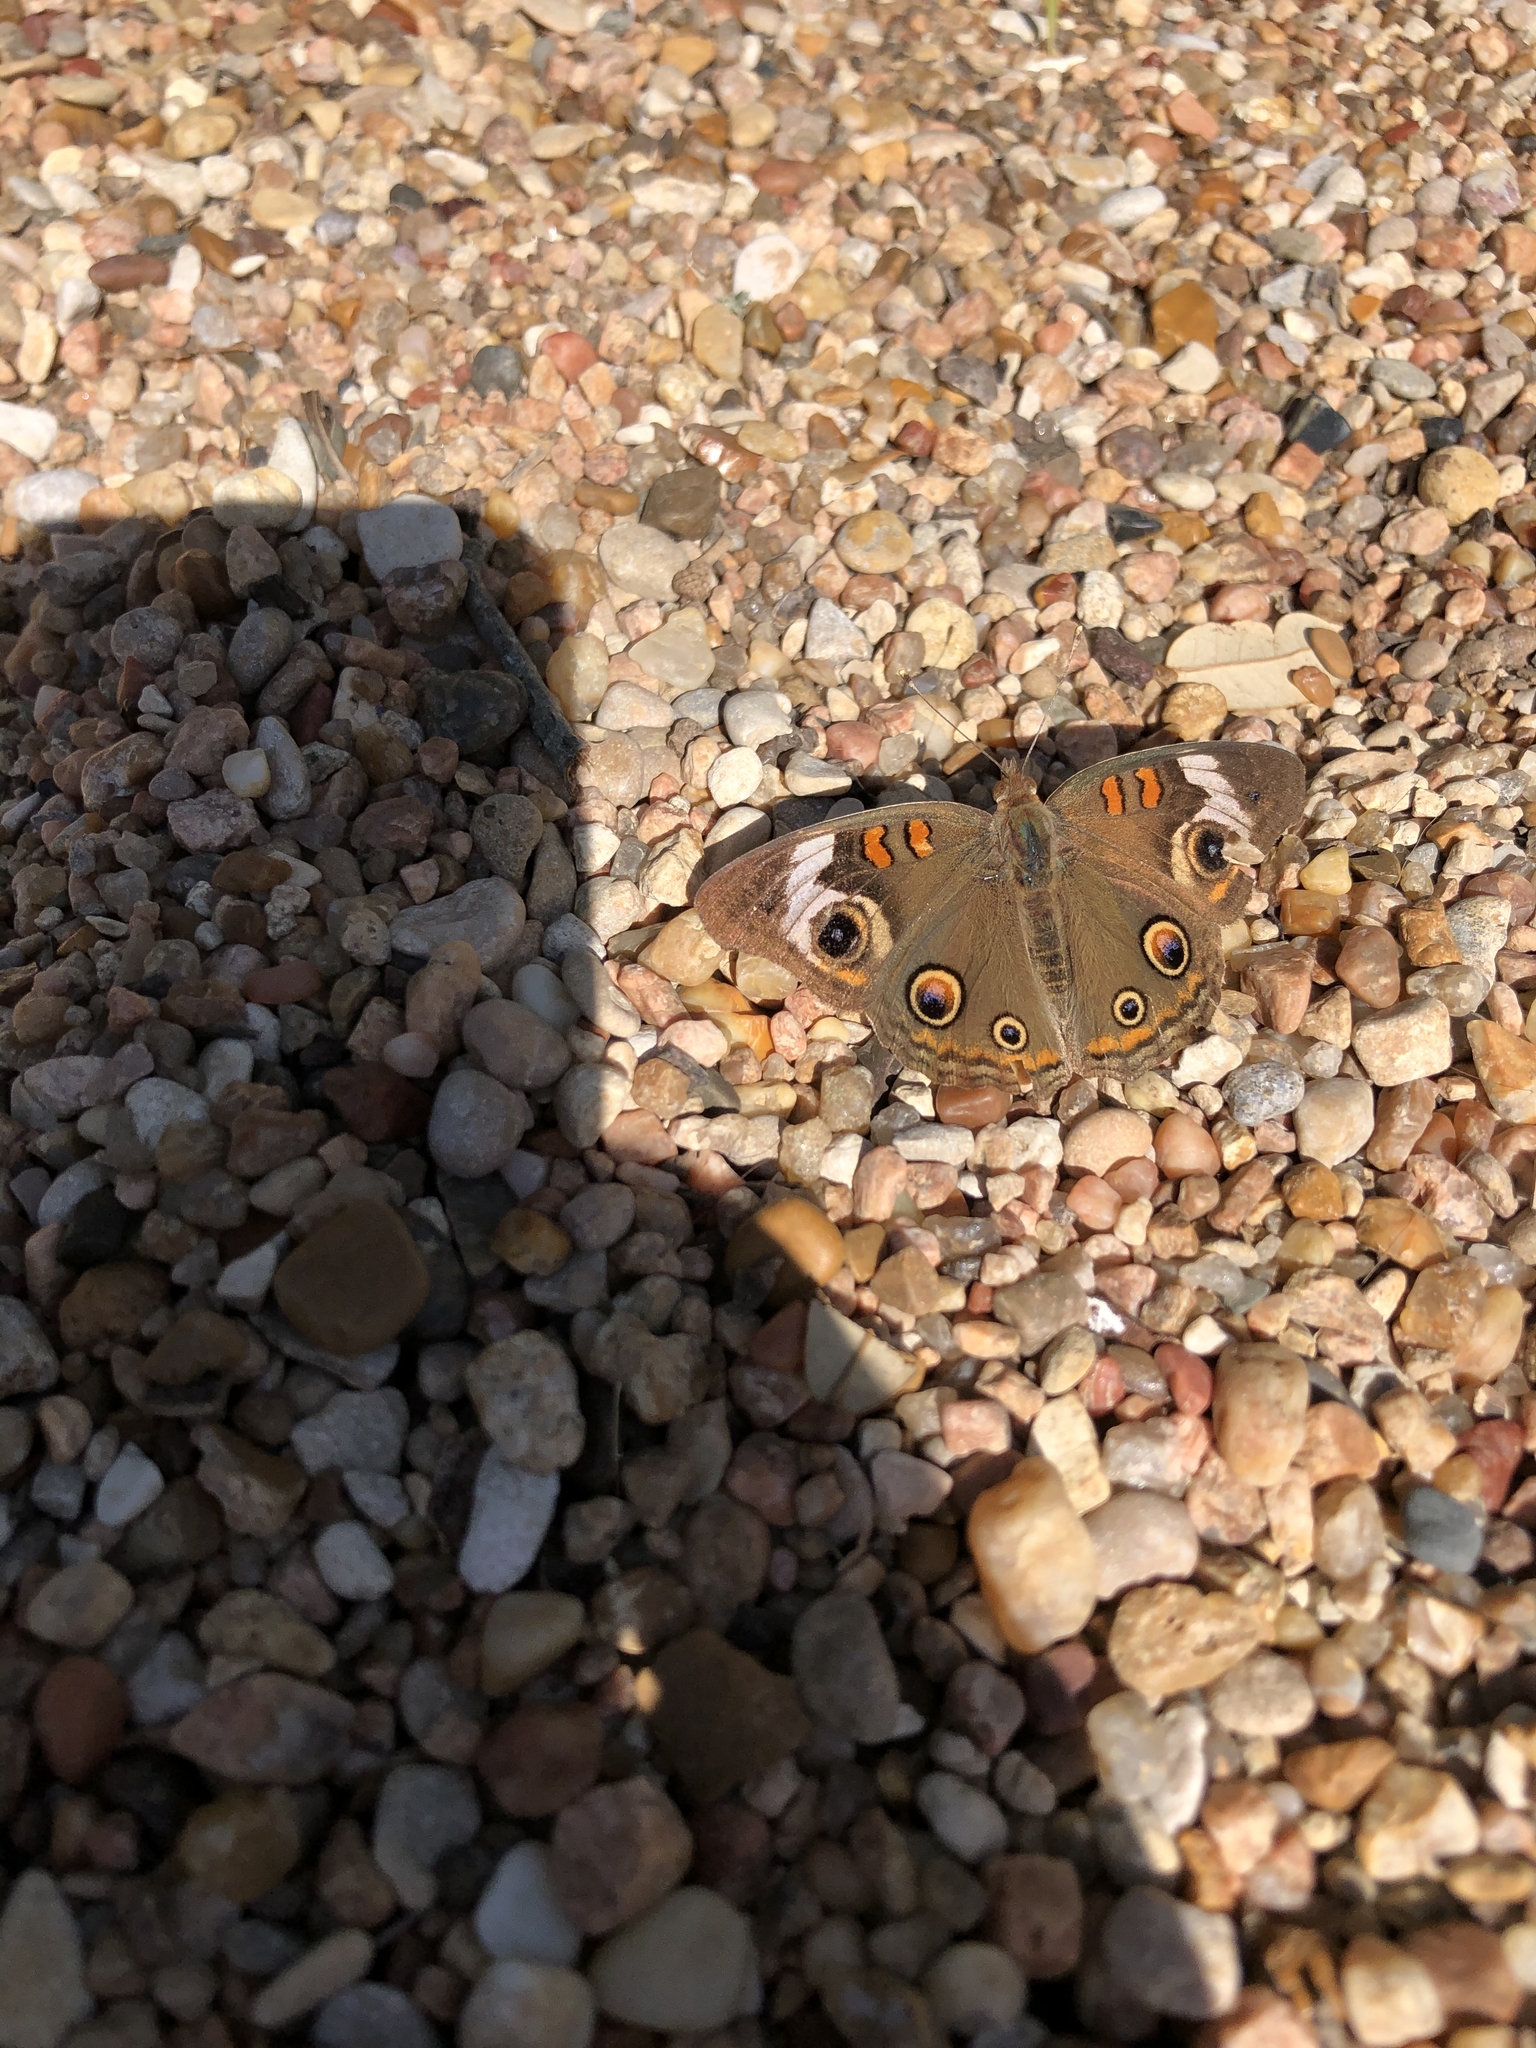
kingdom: Animalia
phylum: Arthropoda
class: Insecta
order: Lepidoptera
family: Nymphalidae
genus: Junonia
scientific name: Junonia coenia
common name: Common buckeye
